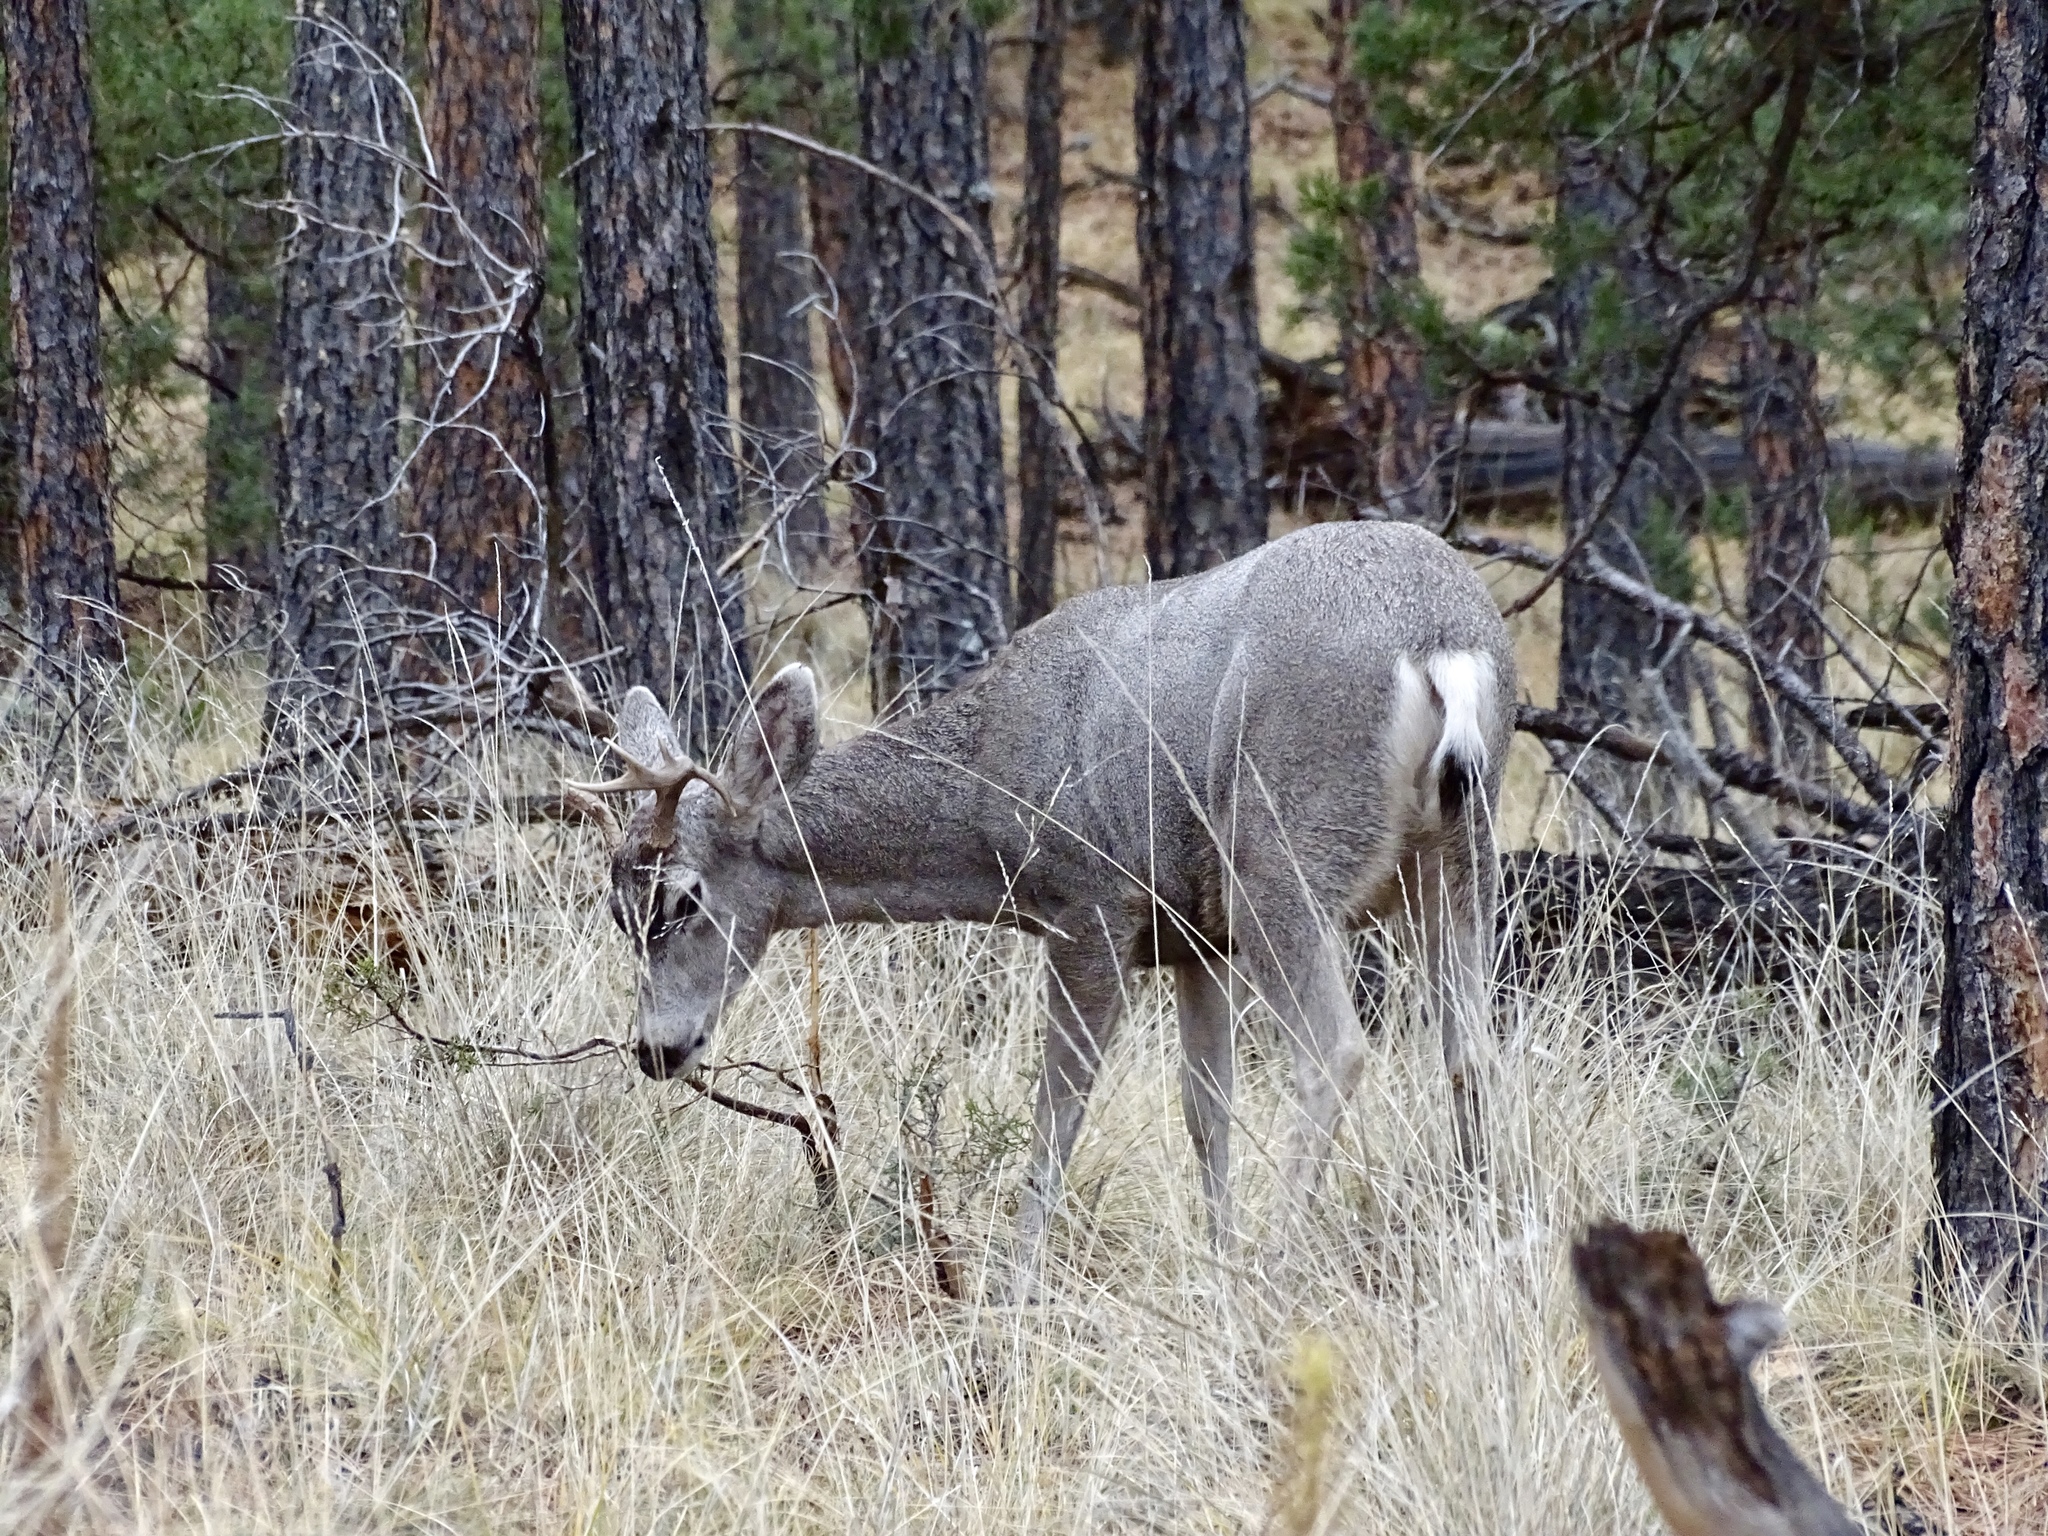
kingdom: Animalia
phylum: Chordata
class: Mammalia
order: Artiodactyla
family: Cervidae
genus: Odocoileus
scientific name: Odocoileus hemionus
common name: Mule deer
